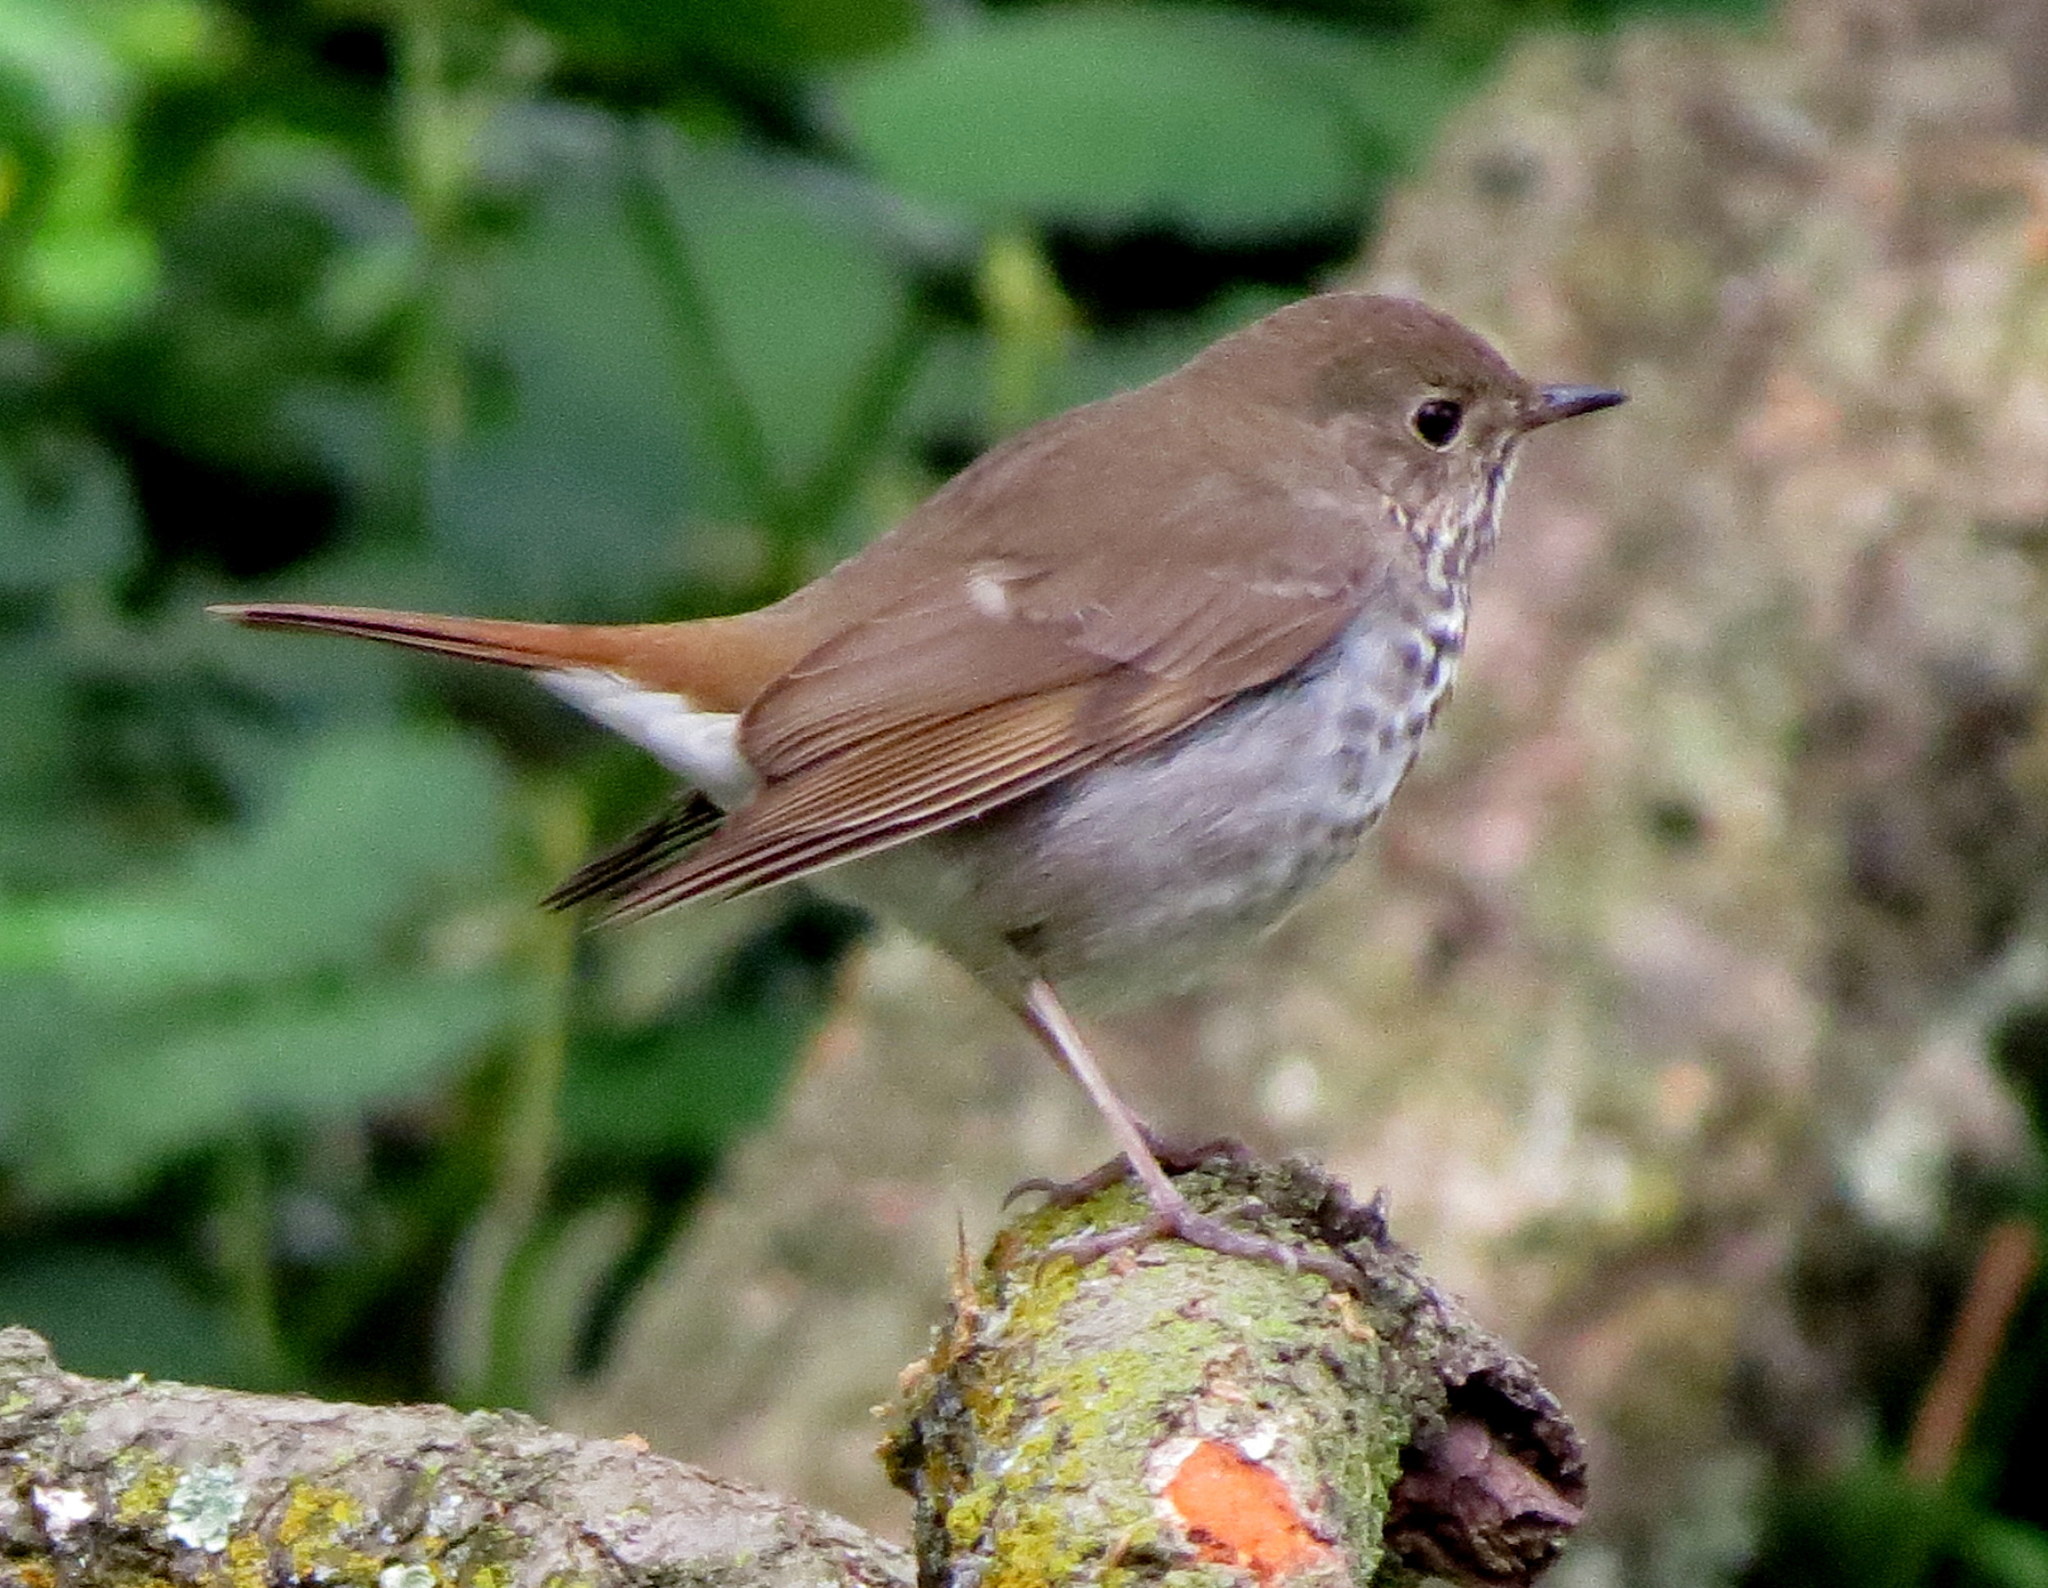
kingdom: Animalia
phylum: Chordata
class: Aves
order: Passeriformes
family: Turdidae
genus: Catharus
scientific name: Catharus guttatus
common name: Hermit thrush
